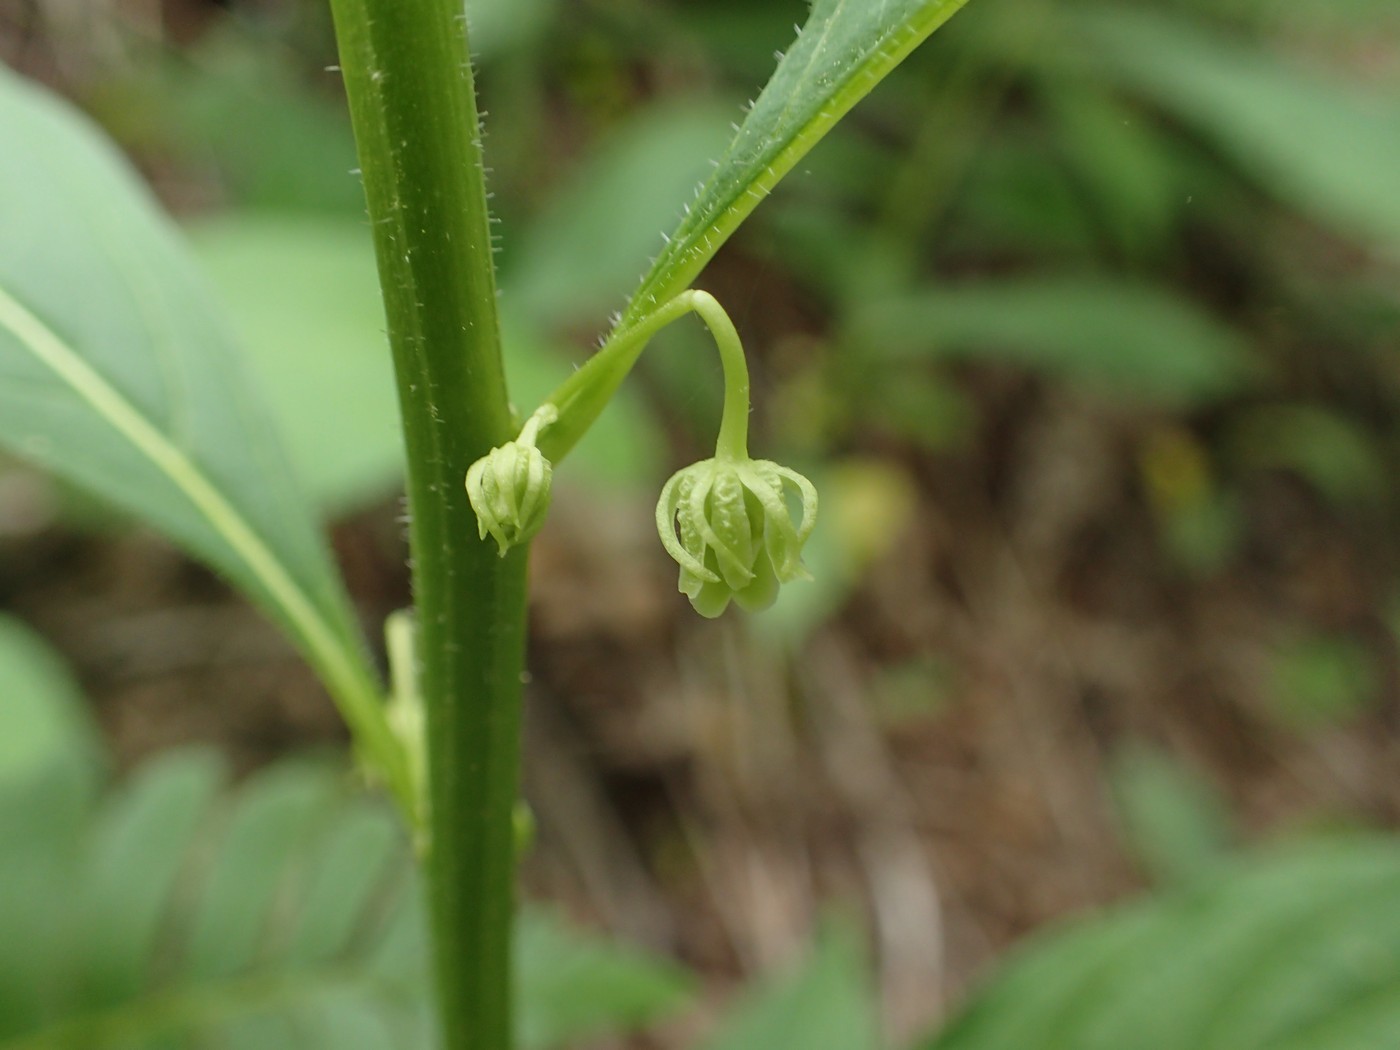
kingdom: Plantae
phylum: Tracheophyta
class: Magnoliopsida
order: Malpighiales
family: Violaceae
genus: Cubelium
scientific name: Cubelium concolor
